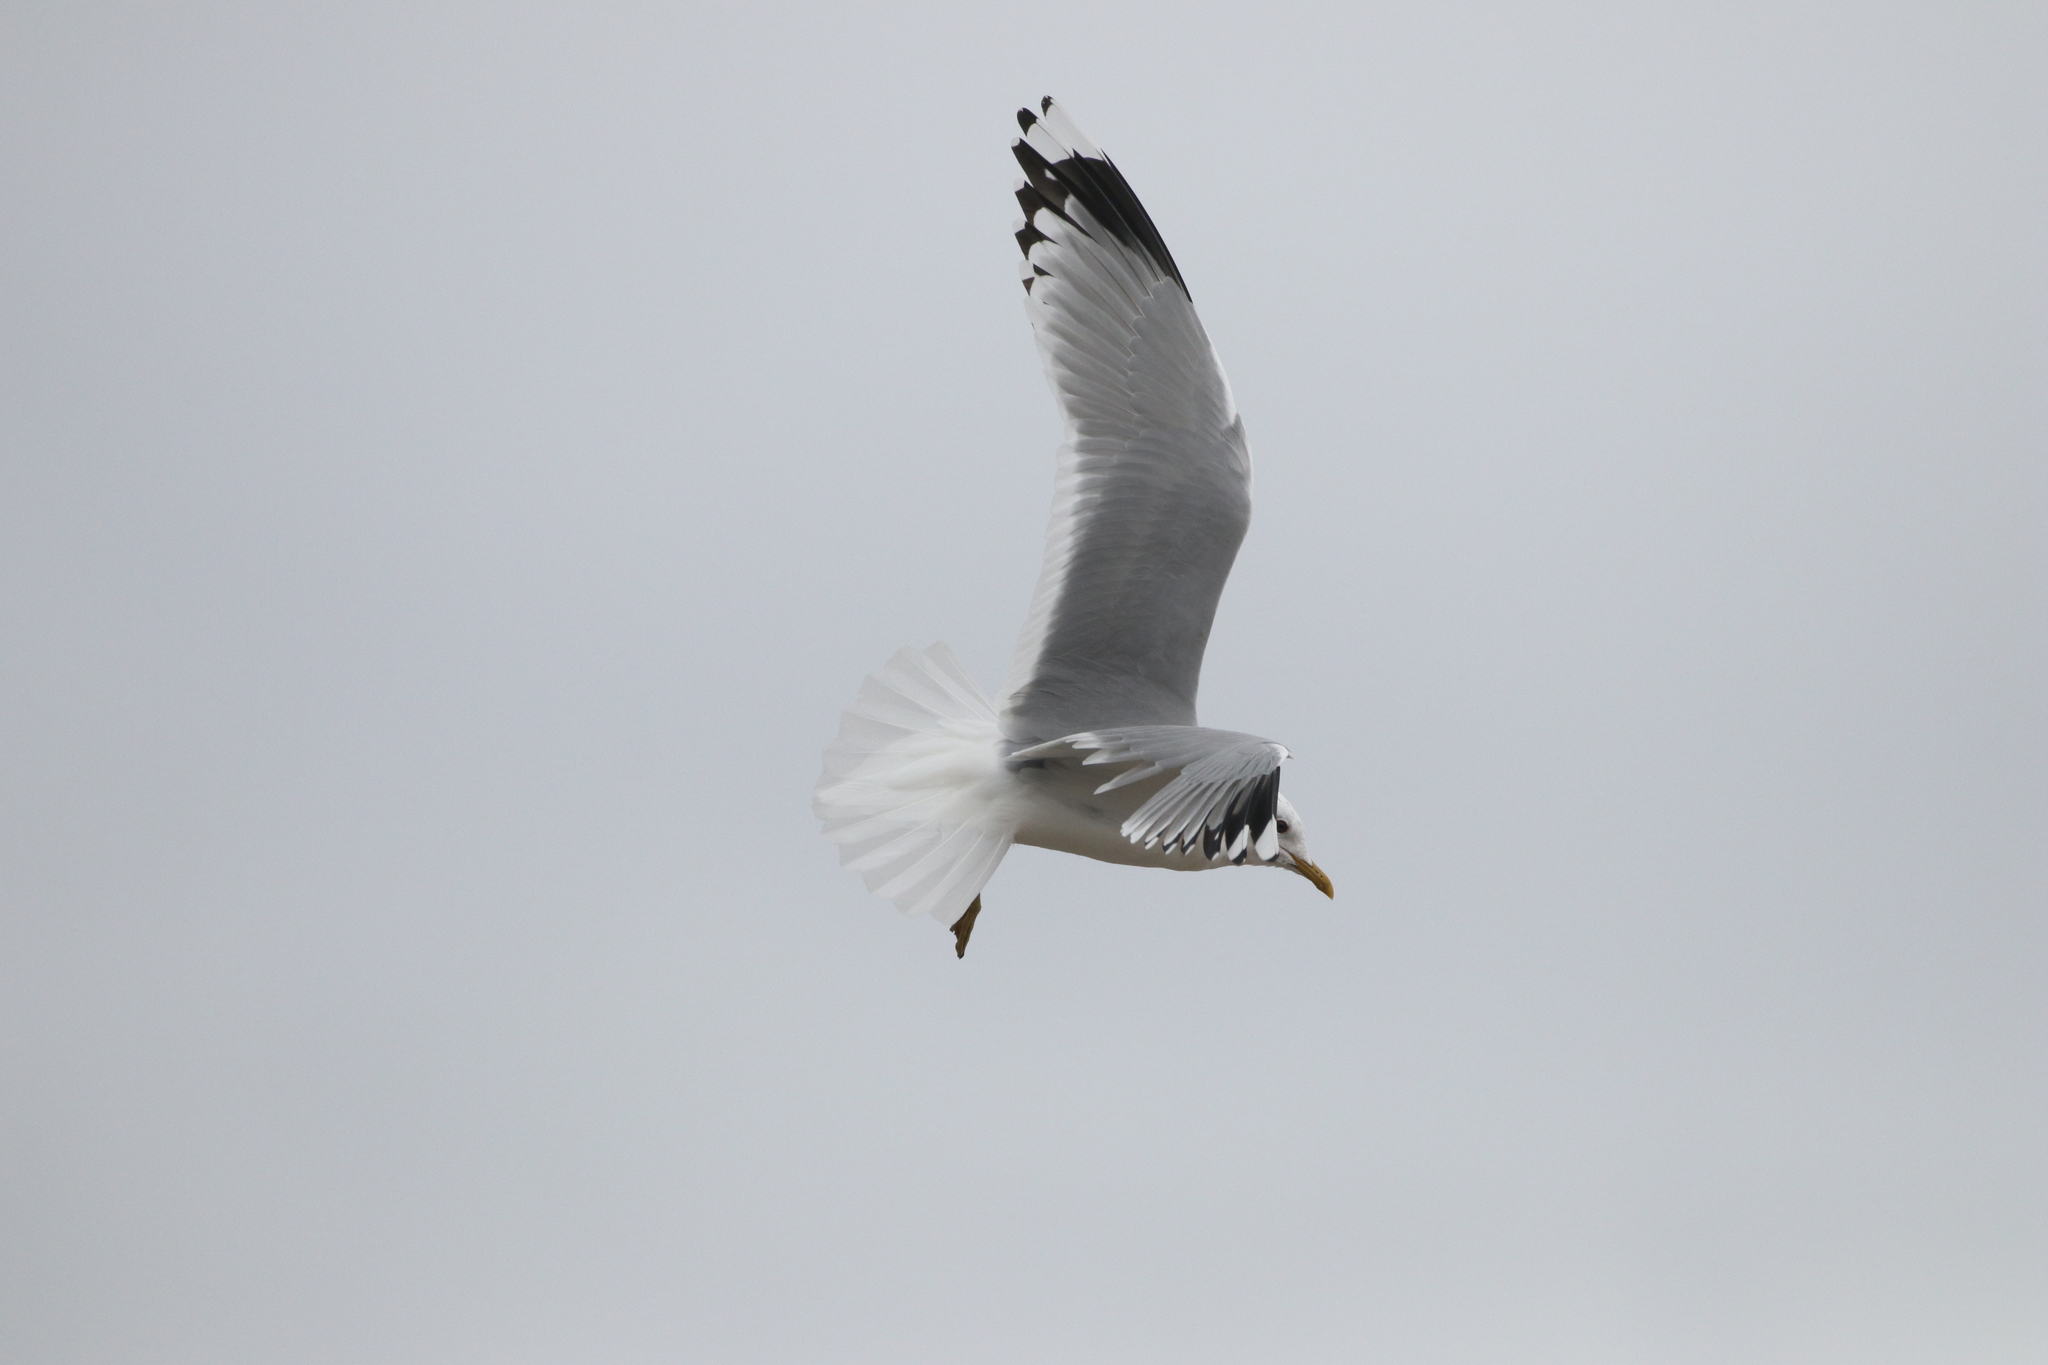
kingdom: Animalia
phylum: Chordata
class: Aves
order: Charadriiformes
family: Laridae
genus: Larus
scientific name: Larus canus
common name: Mew gull
